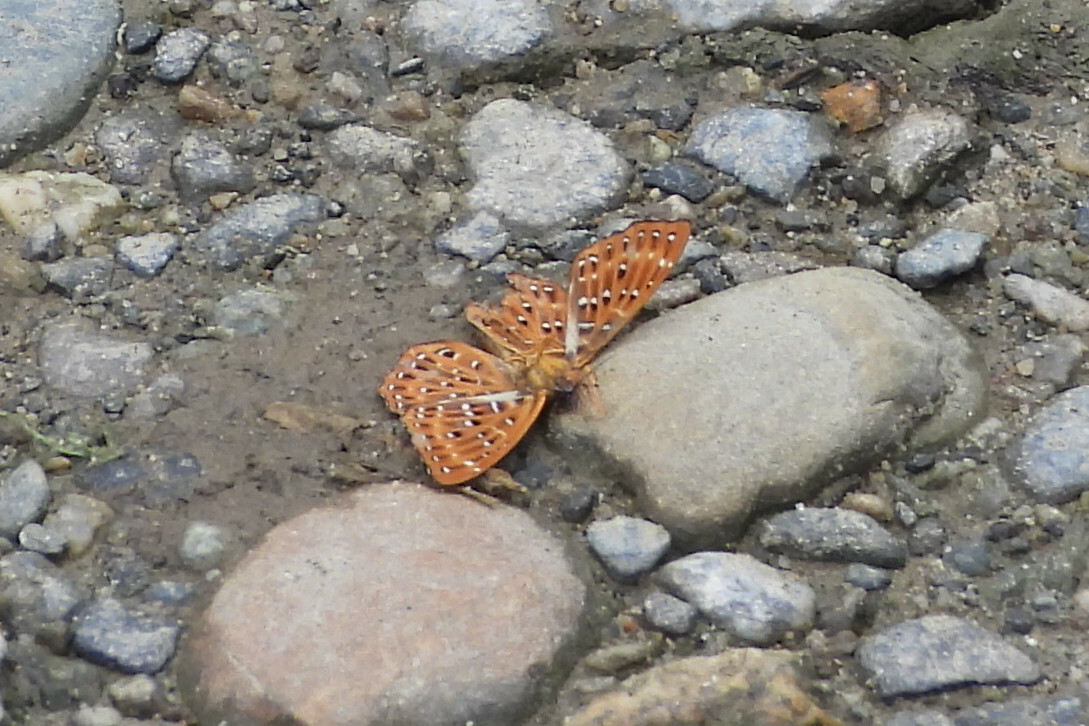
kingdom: Animalia
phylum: Arthropoda
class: Insecta
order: Lepidoptera
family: Riodinidae
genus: Zemeros
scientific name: Zemeros flegyas
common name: Punchinello
